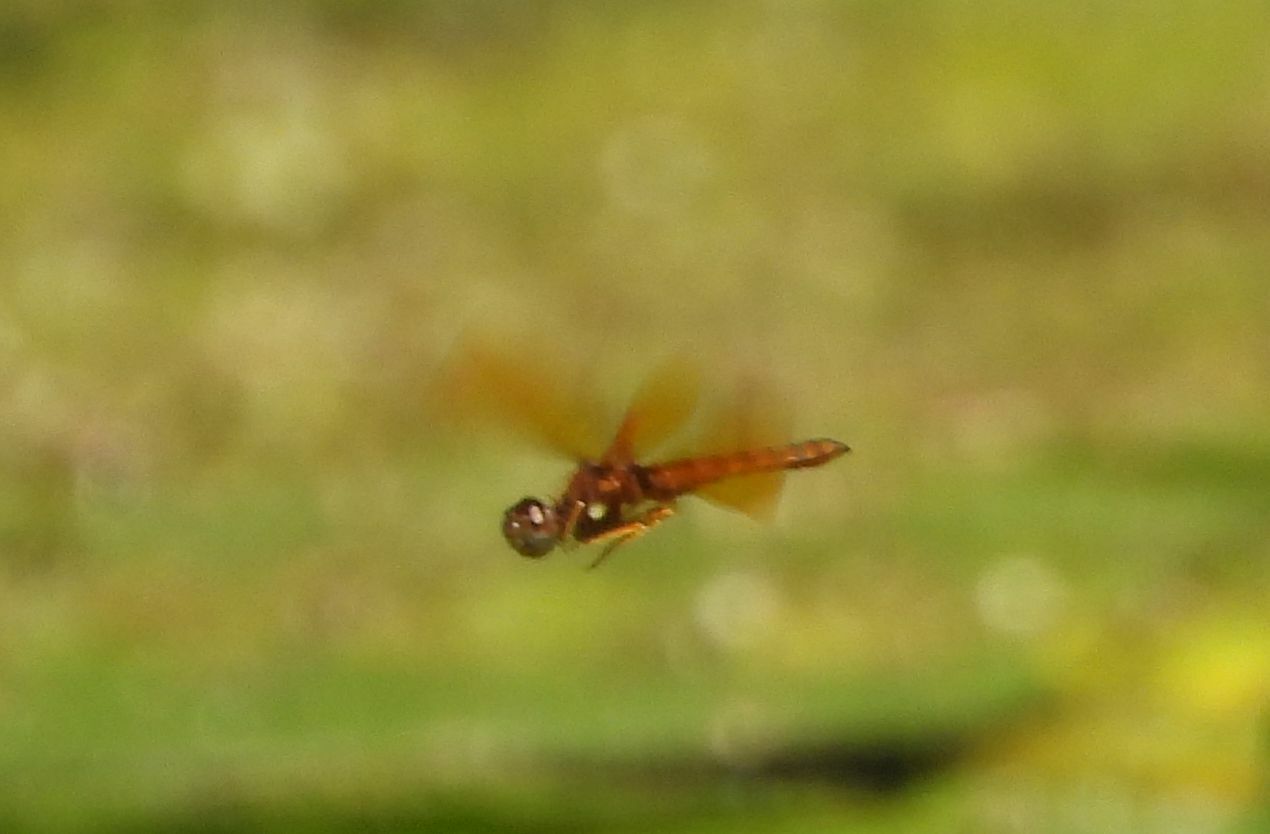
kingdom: Animalia
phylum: Arthropoda
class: Insecta
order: Odonata
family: Libellulidae
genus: Perithemis
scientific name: Perithemis tenera
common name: Eastern amberwing
